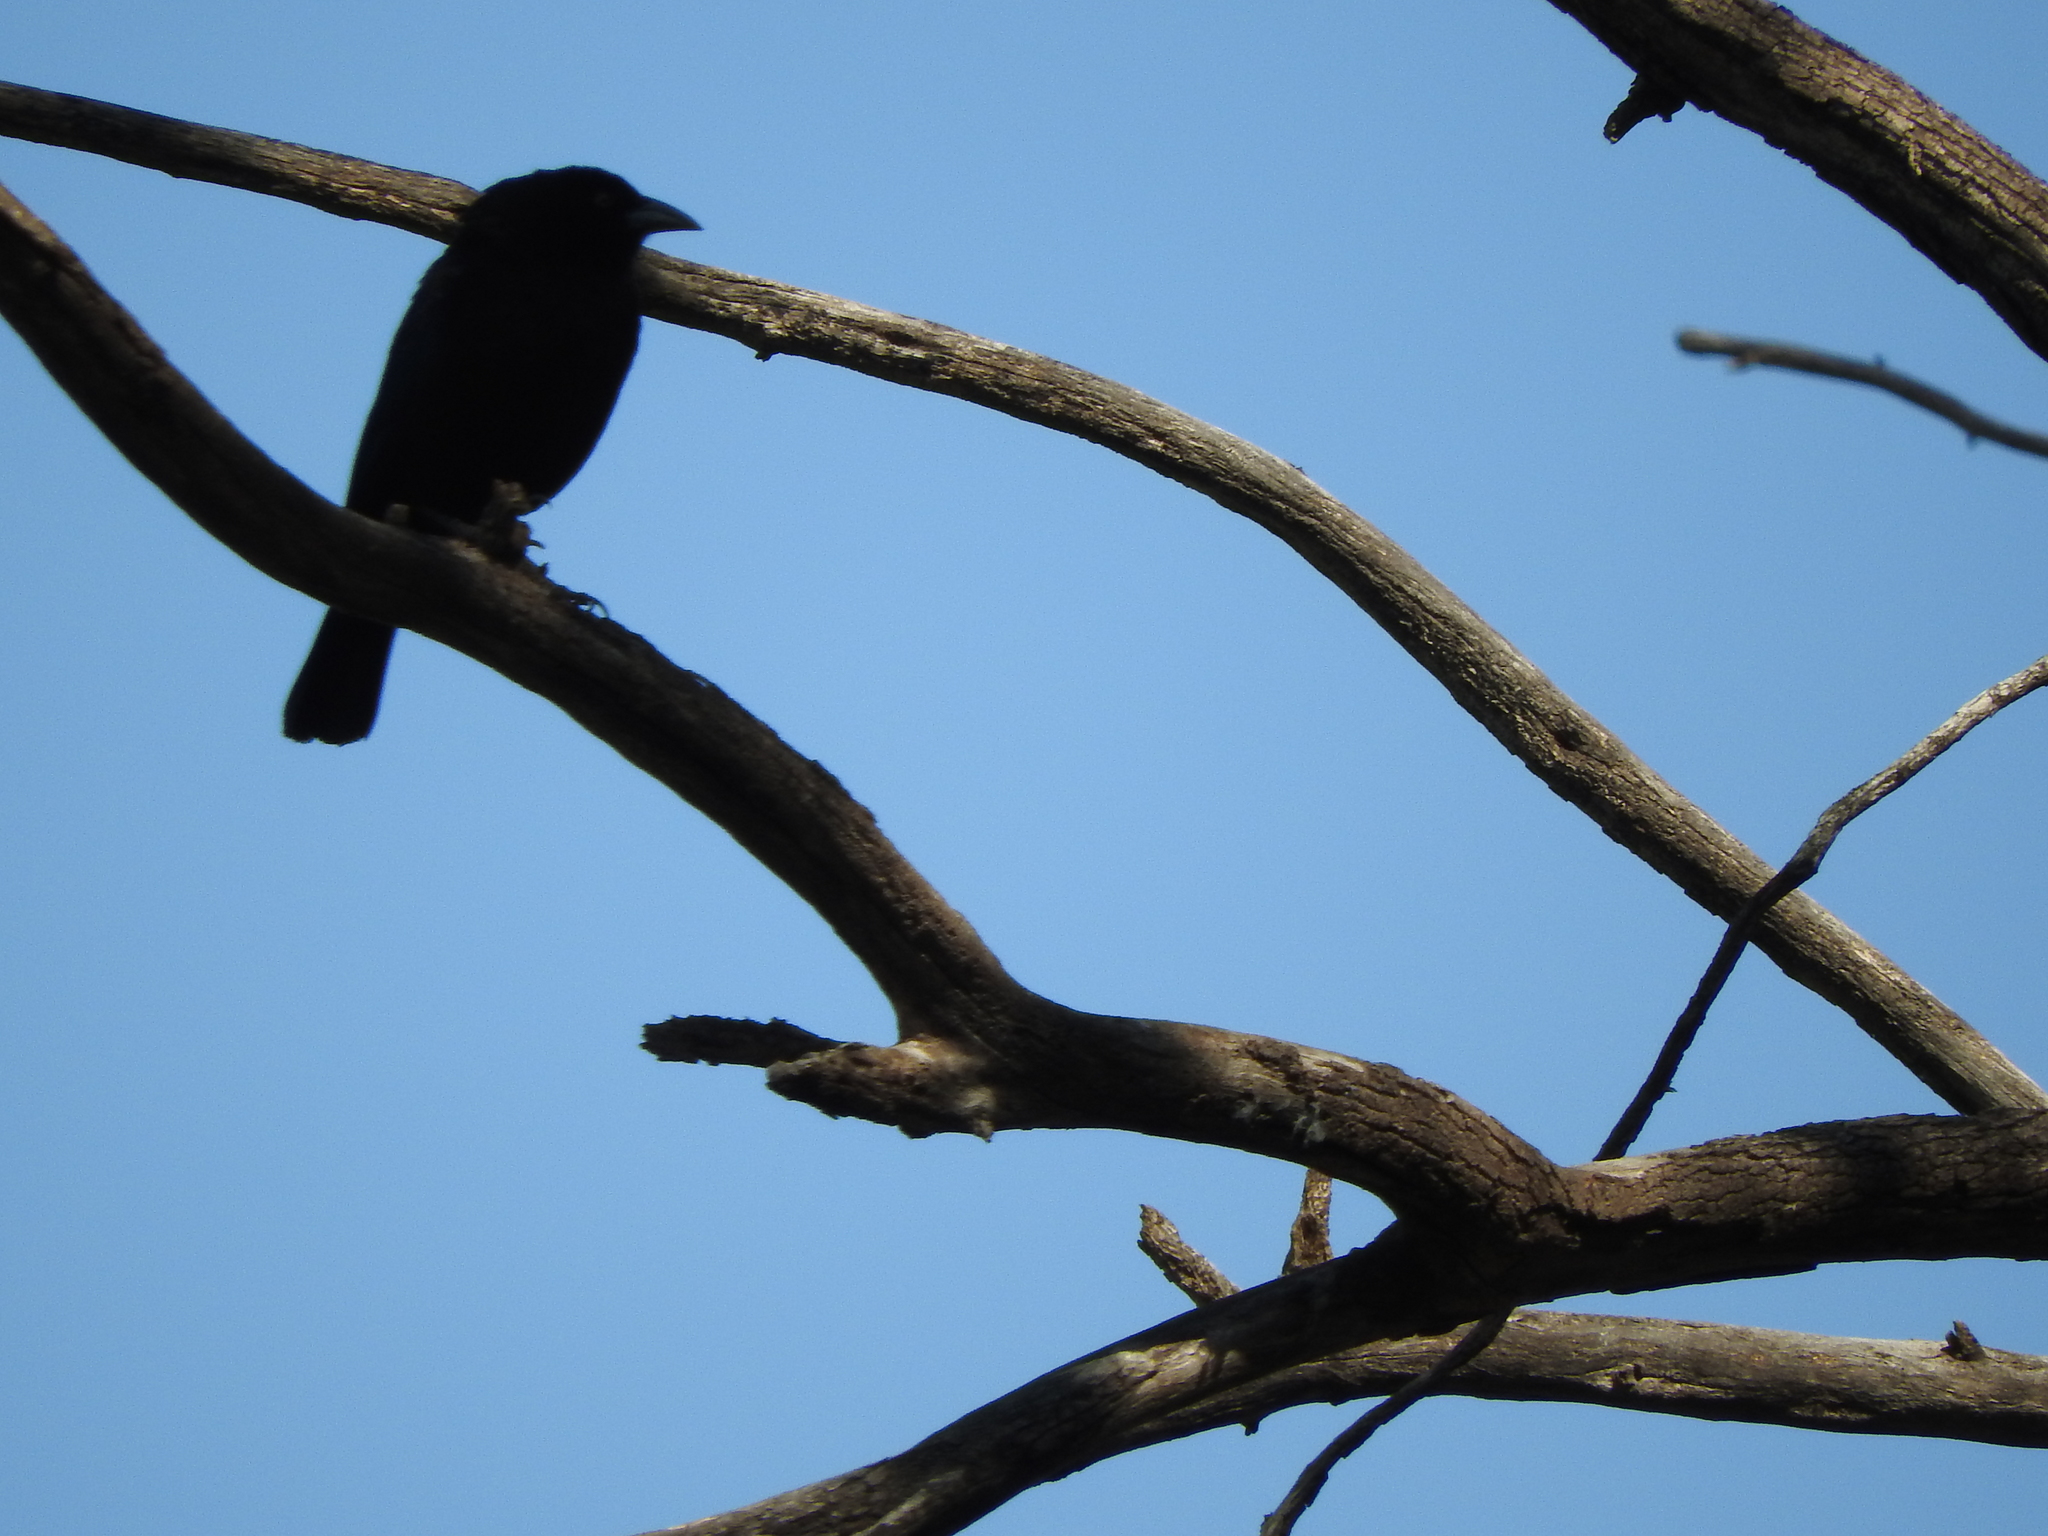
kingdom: Animalia
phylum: Chordata
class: Aves
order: Passeriformes
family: Icteridae
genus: Molothrus
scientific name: Molothrus aeneus
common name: Bronzed cowbird
